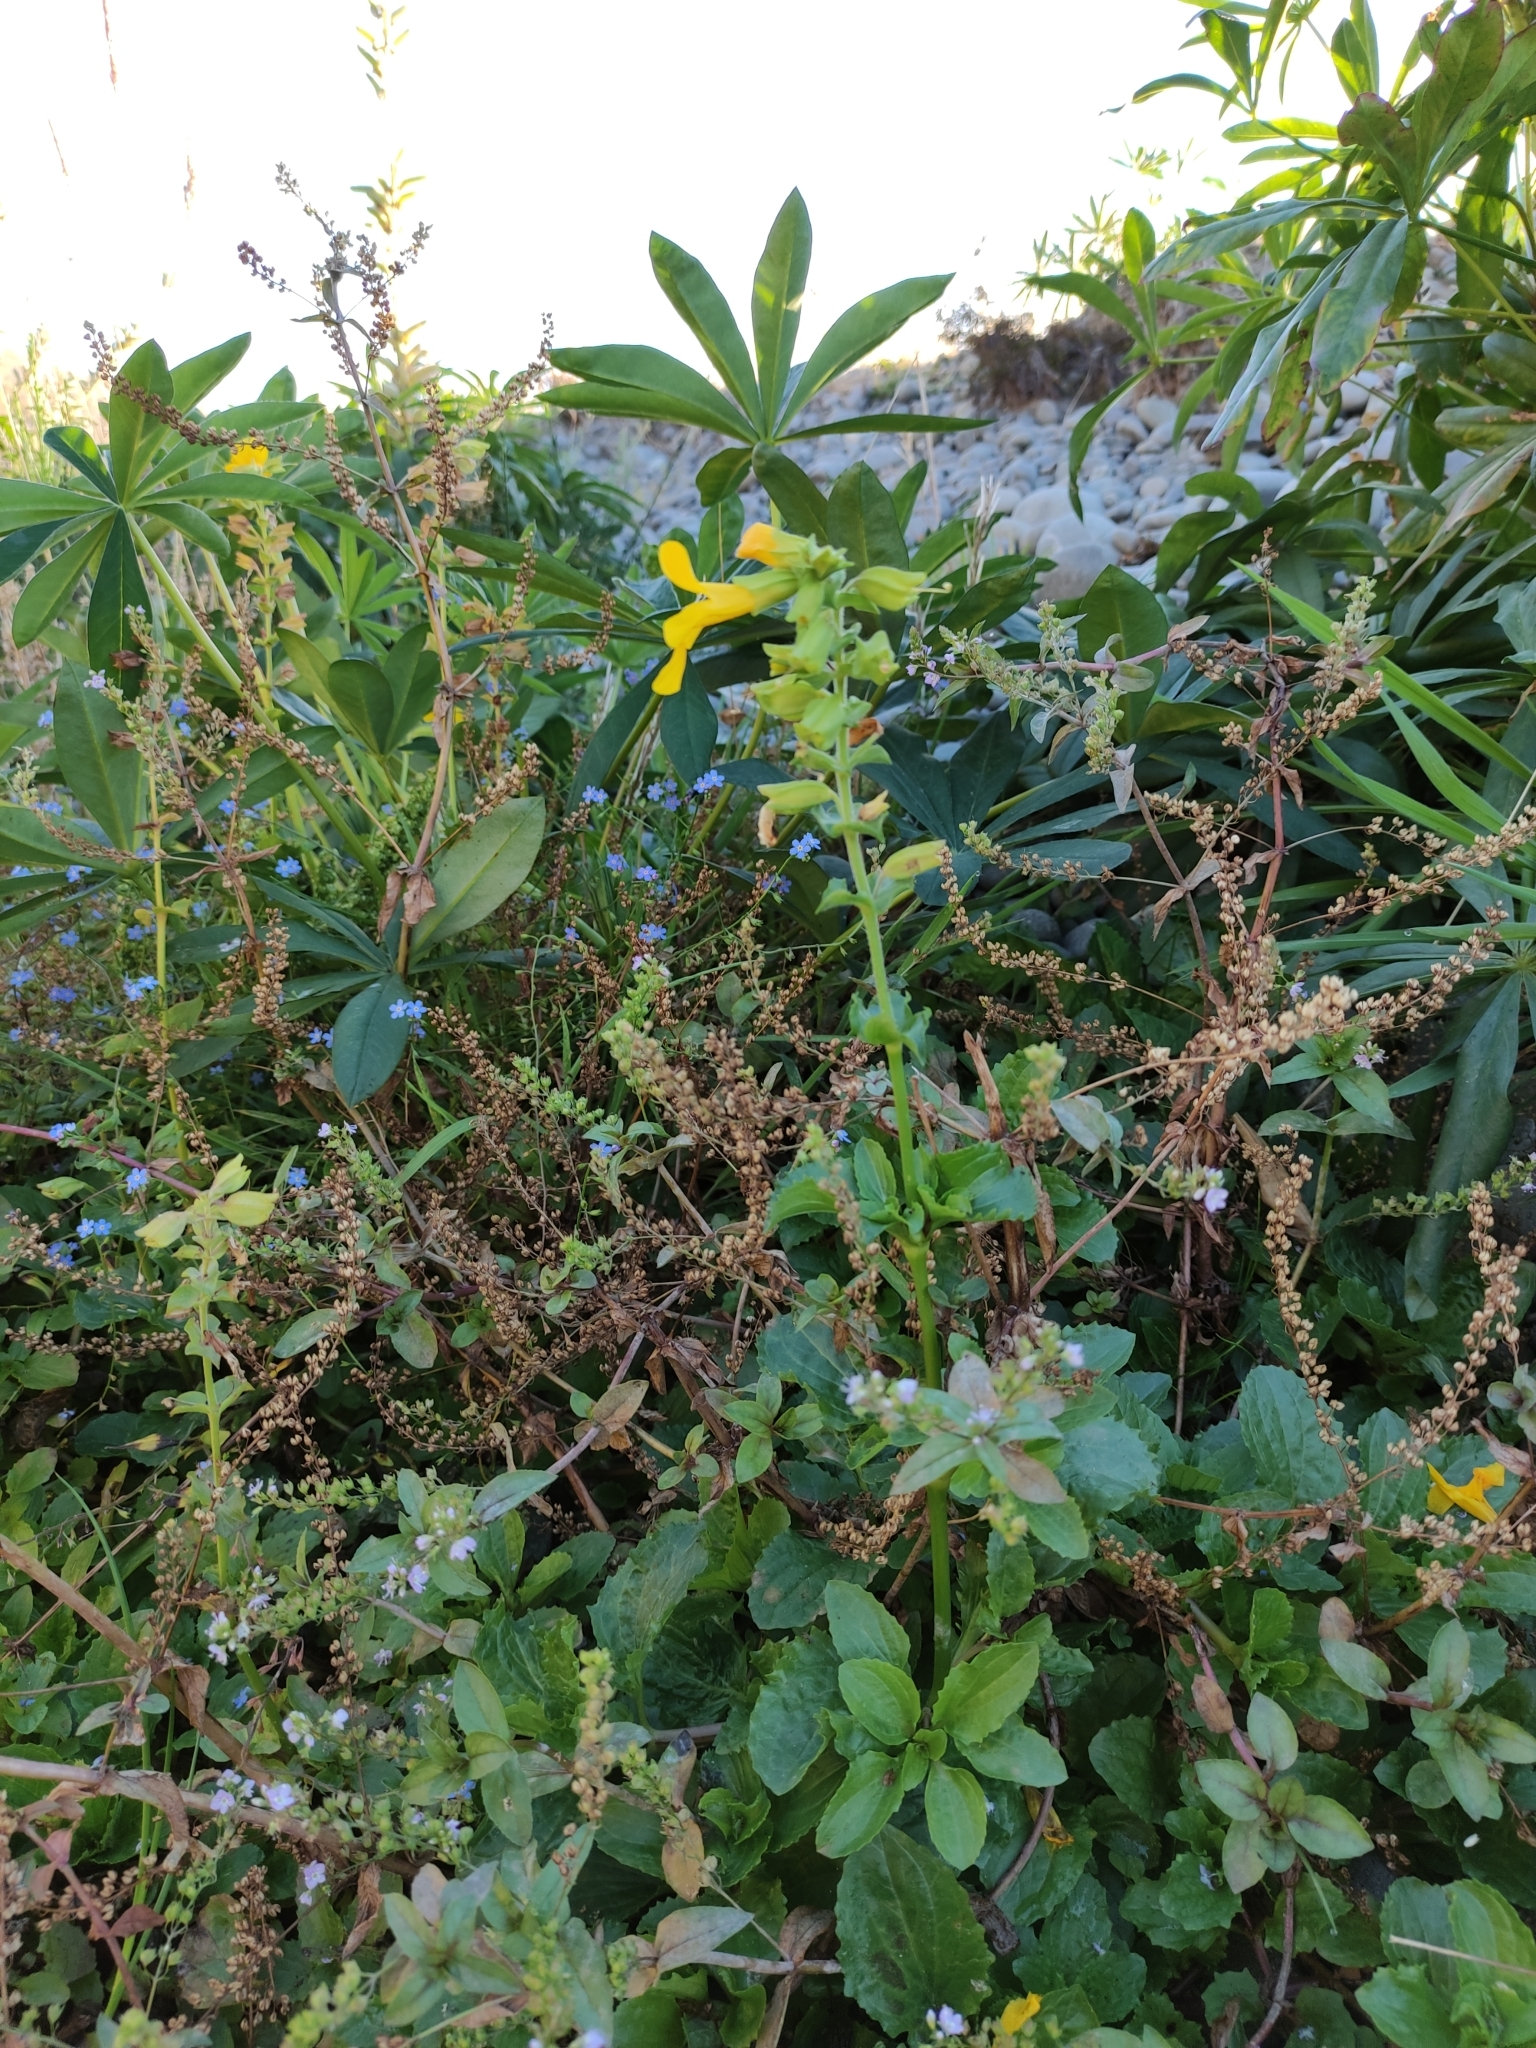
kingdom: Plantae
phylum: Tracheophyta
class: Magnoliopsida
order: Lamiales
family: Phrymaceae
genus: Erythranthe
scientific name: Erythranthe guttata
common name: Monkeyflower
